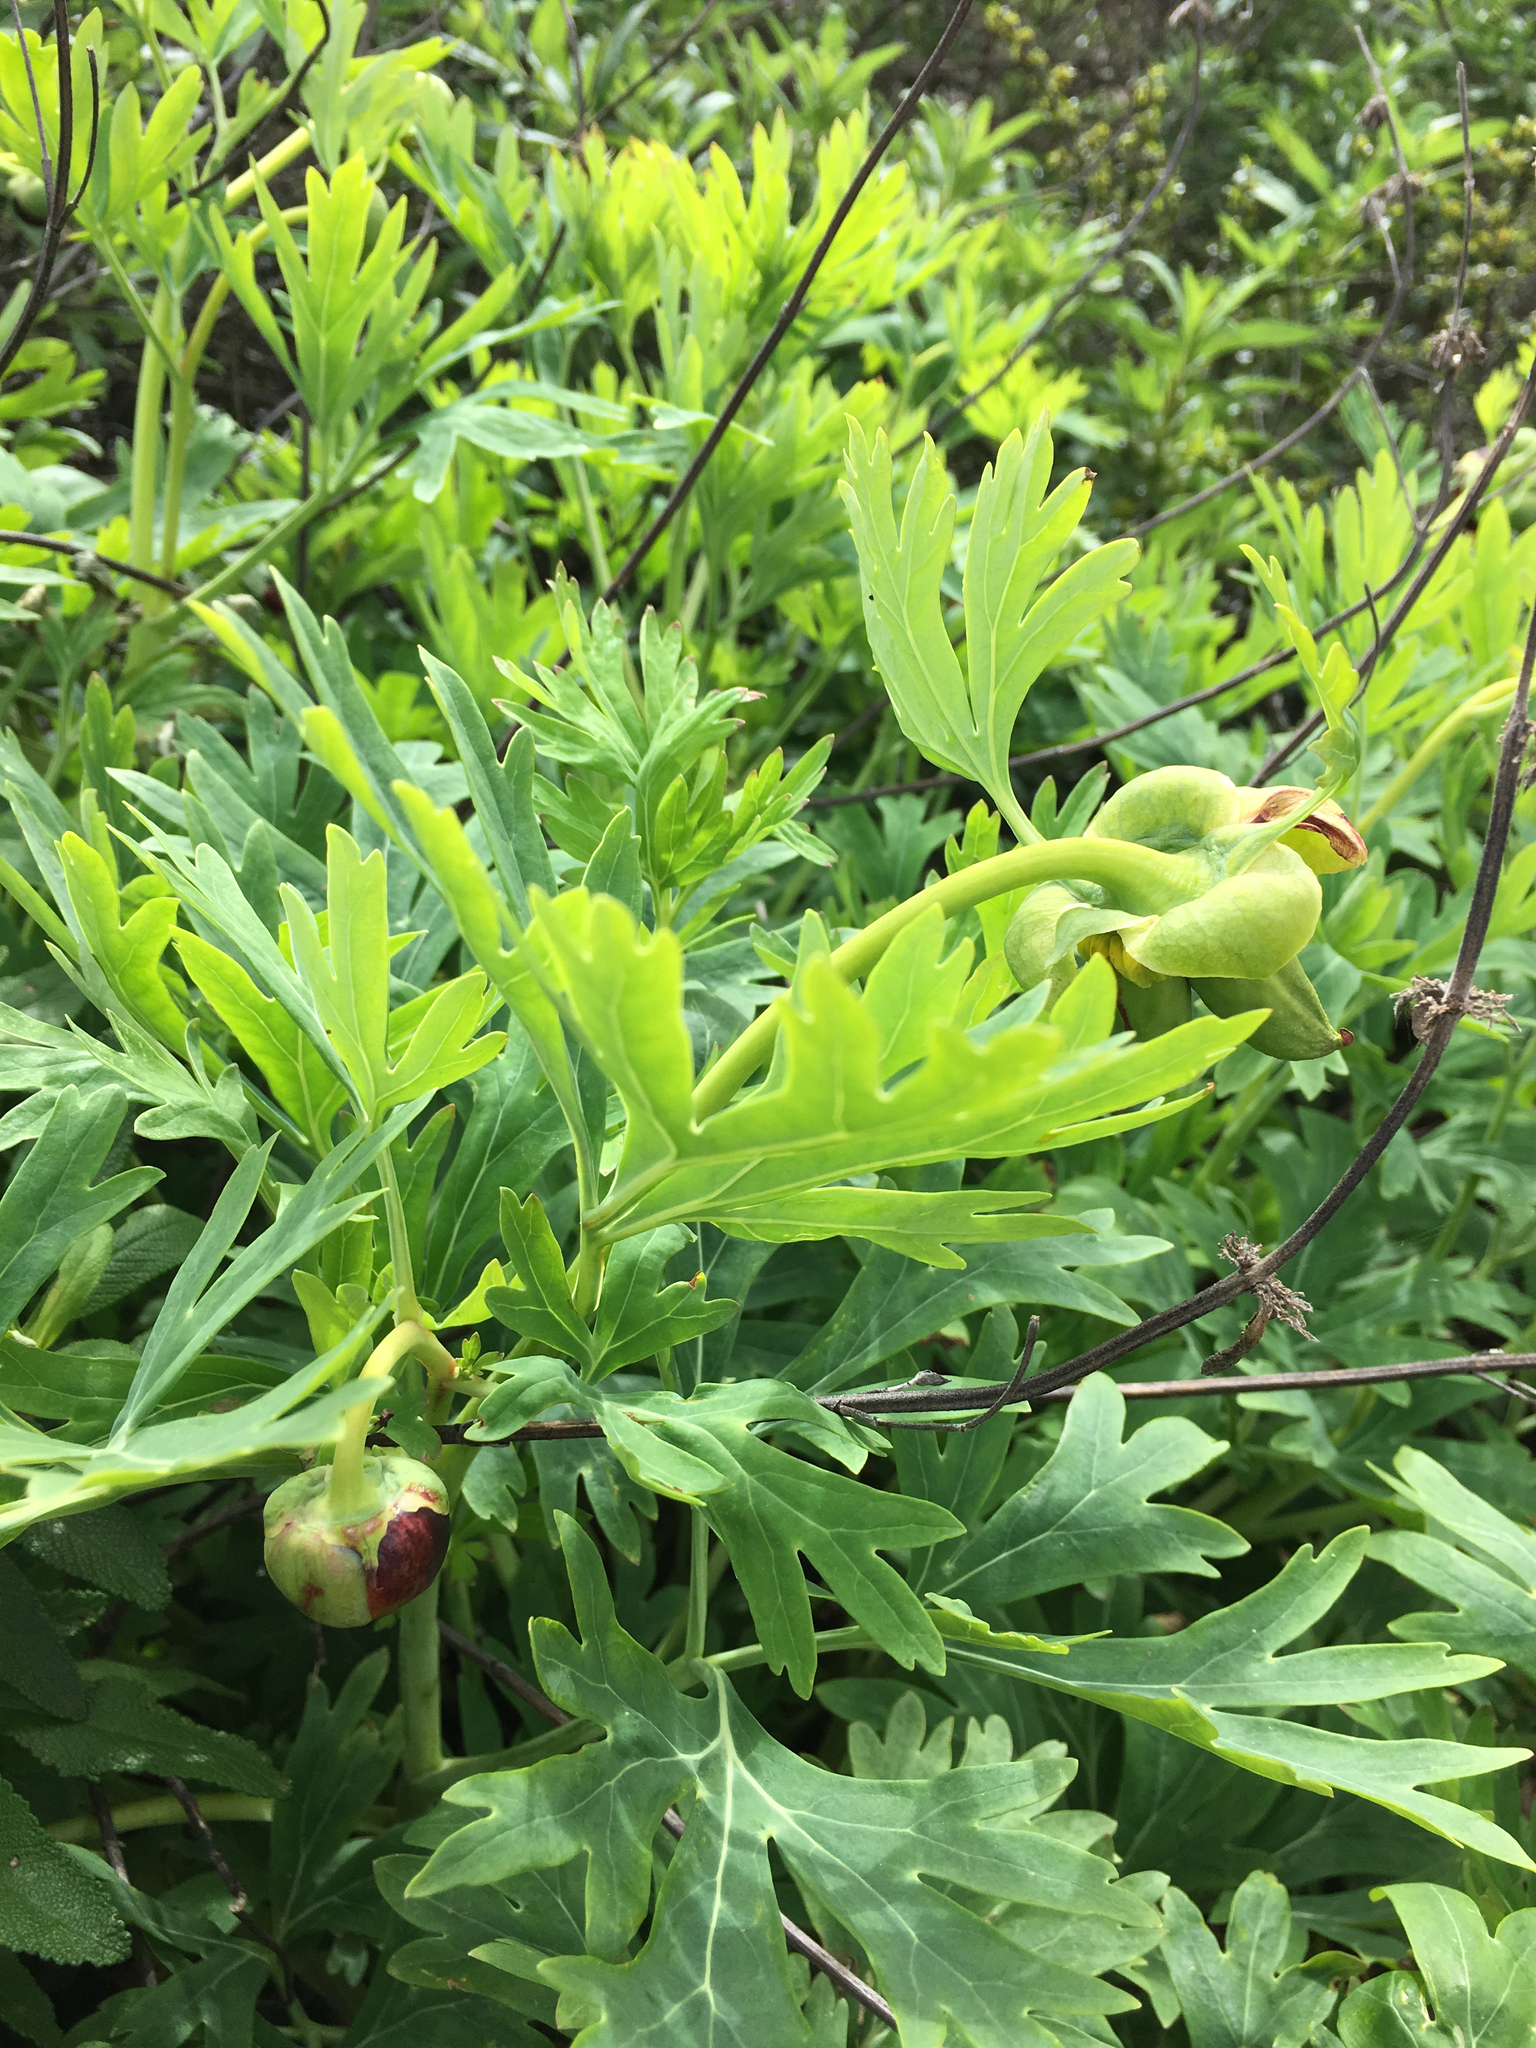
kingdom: Plantae
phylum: Tracheophyta
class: Magnoliopsida
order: Saxifragales
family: Paeoniaceae
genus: Paeonia
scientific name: Paeonia californica
